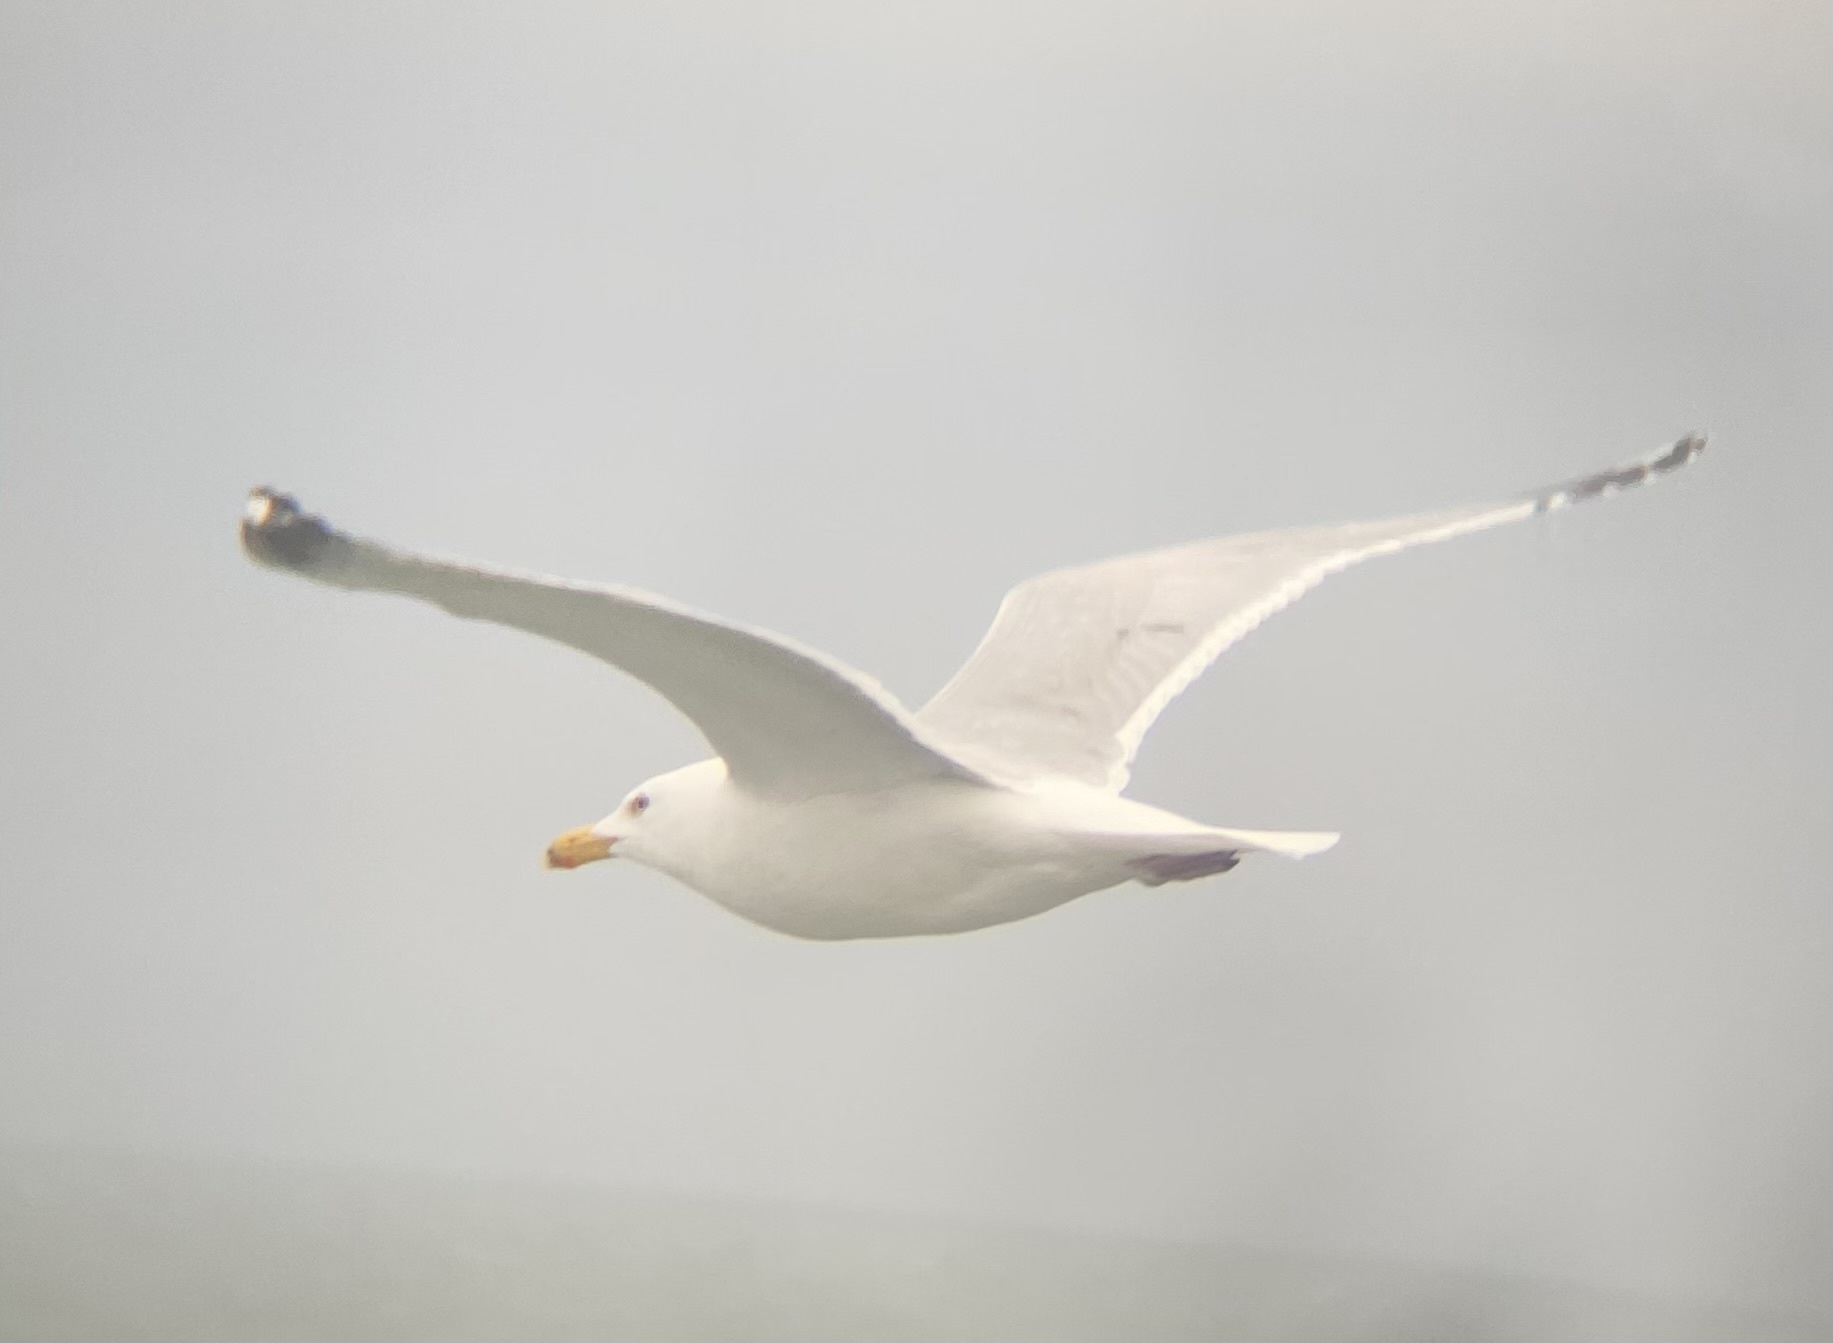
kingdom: Animalia
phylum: Chordata
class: Aves
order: Charadriiformes
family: Laridae
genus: Larus
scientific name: Larus argentatus
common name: Herring gull
